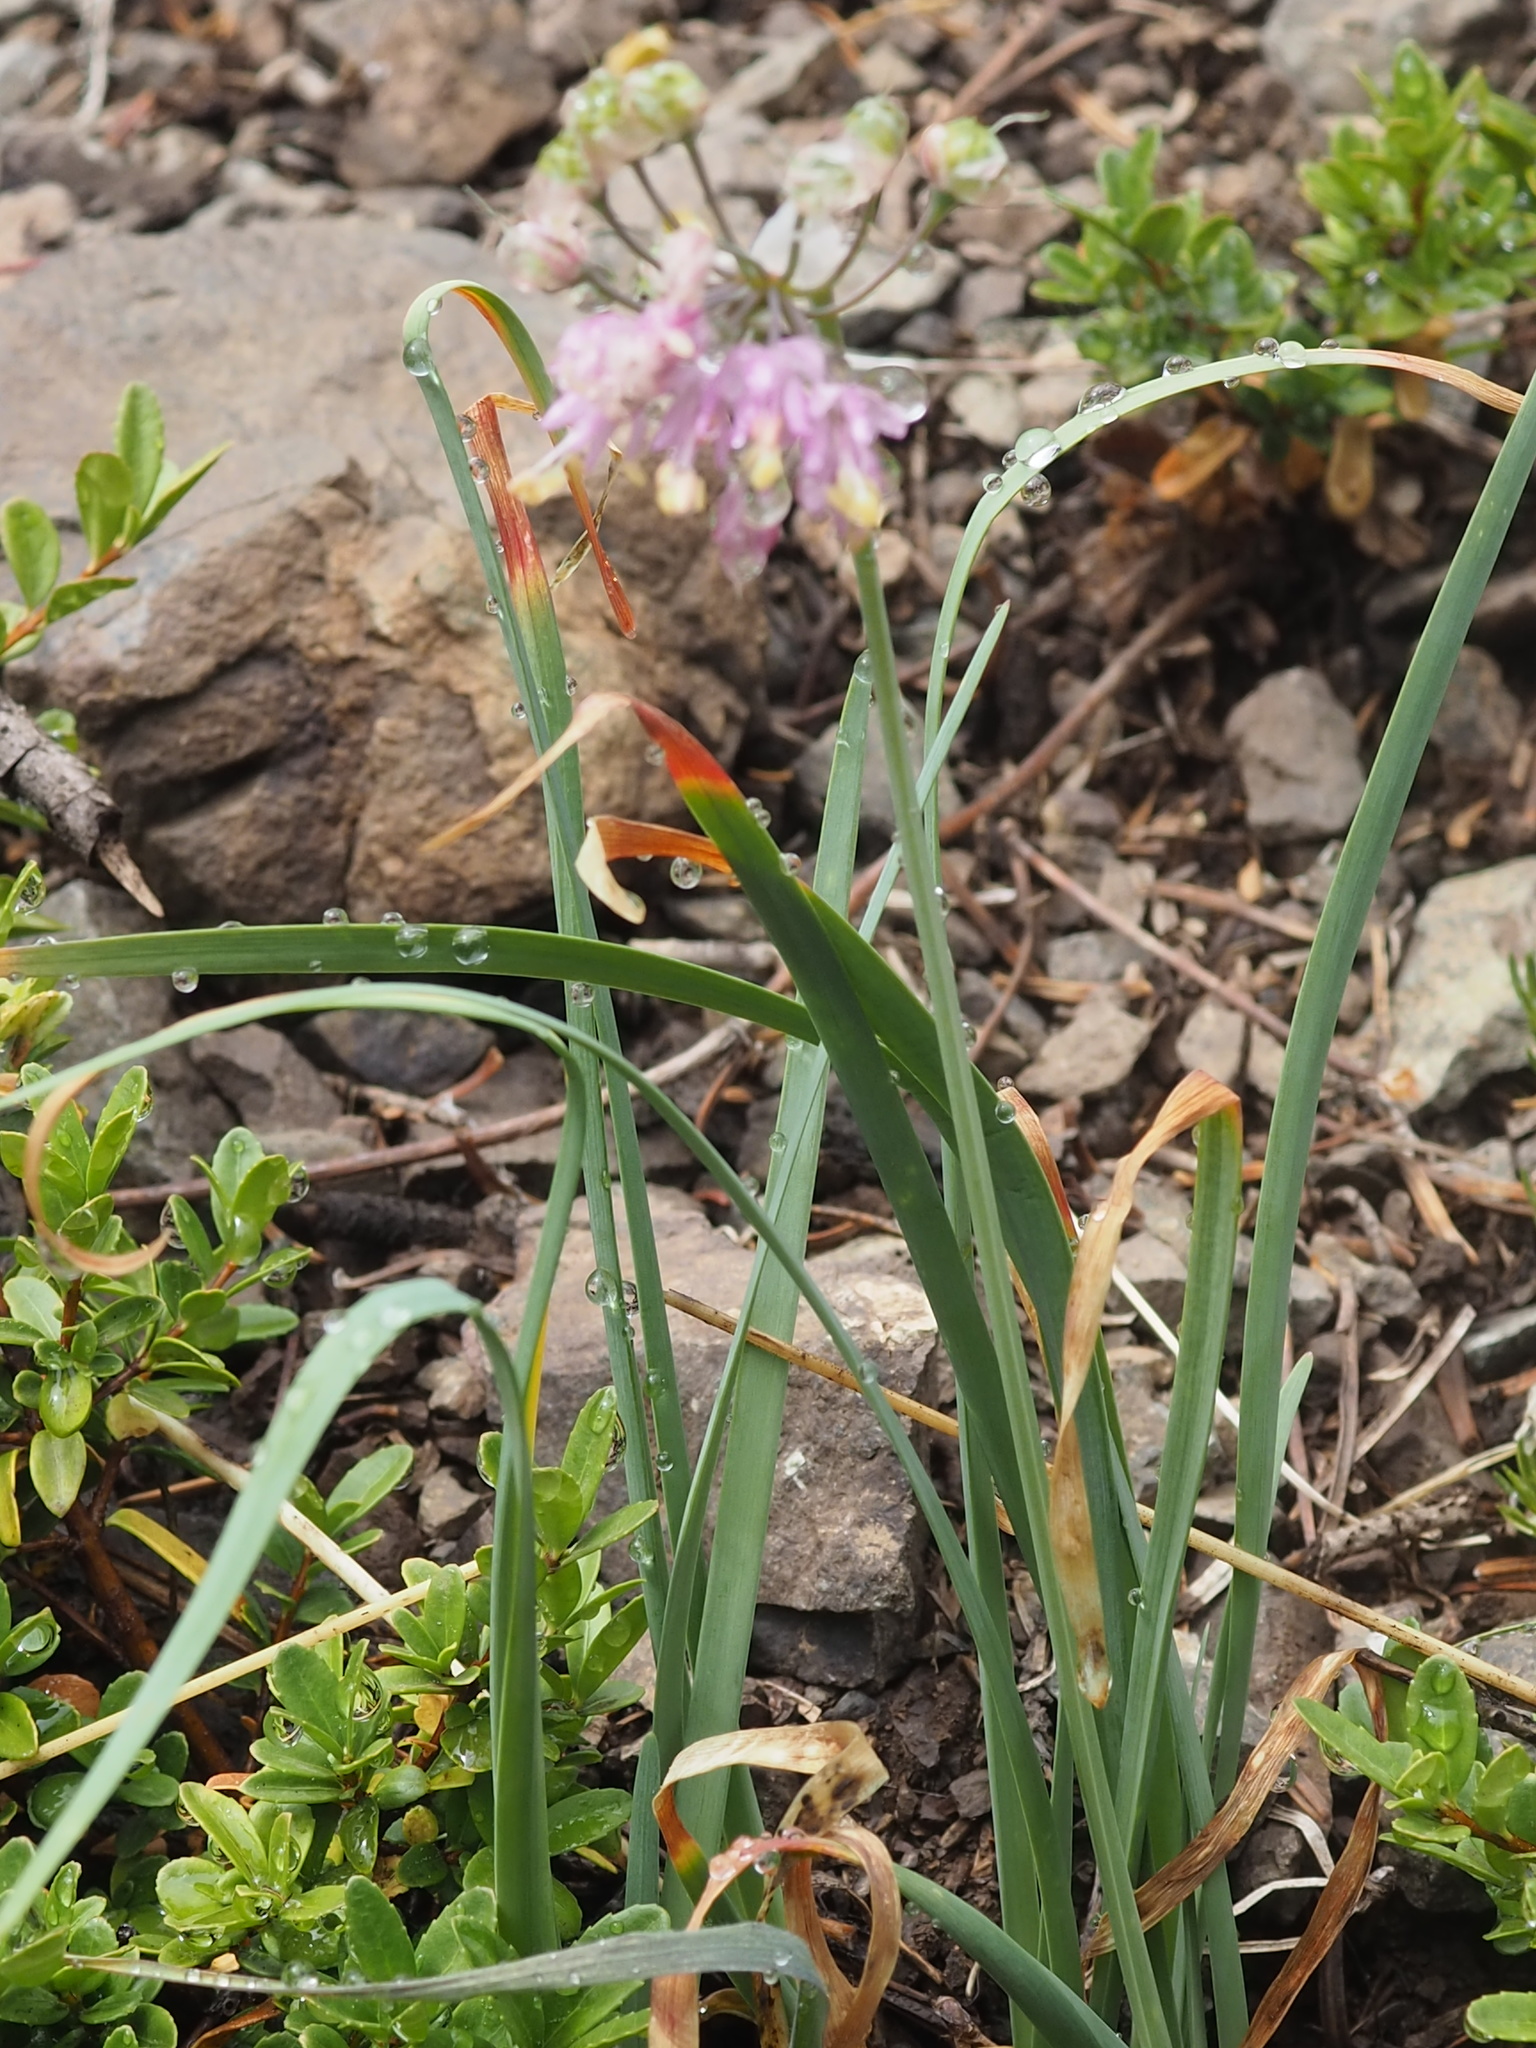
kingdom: Plantae
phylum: Tracheophyta
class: Liliopsida
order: Asparagales
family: Amaryllidaceae
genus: Allium
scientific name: Allium cernuum
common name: Nodding onion
